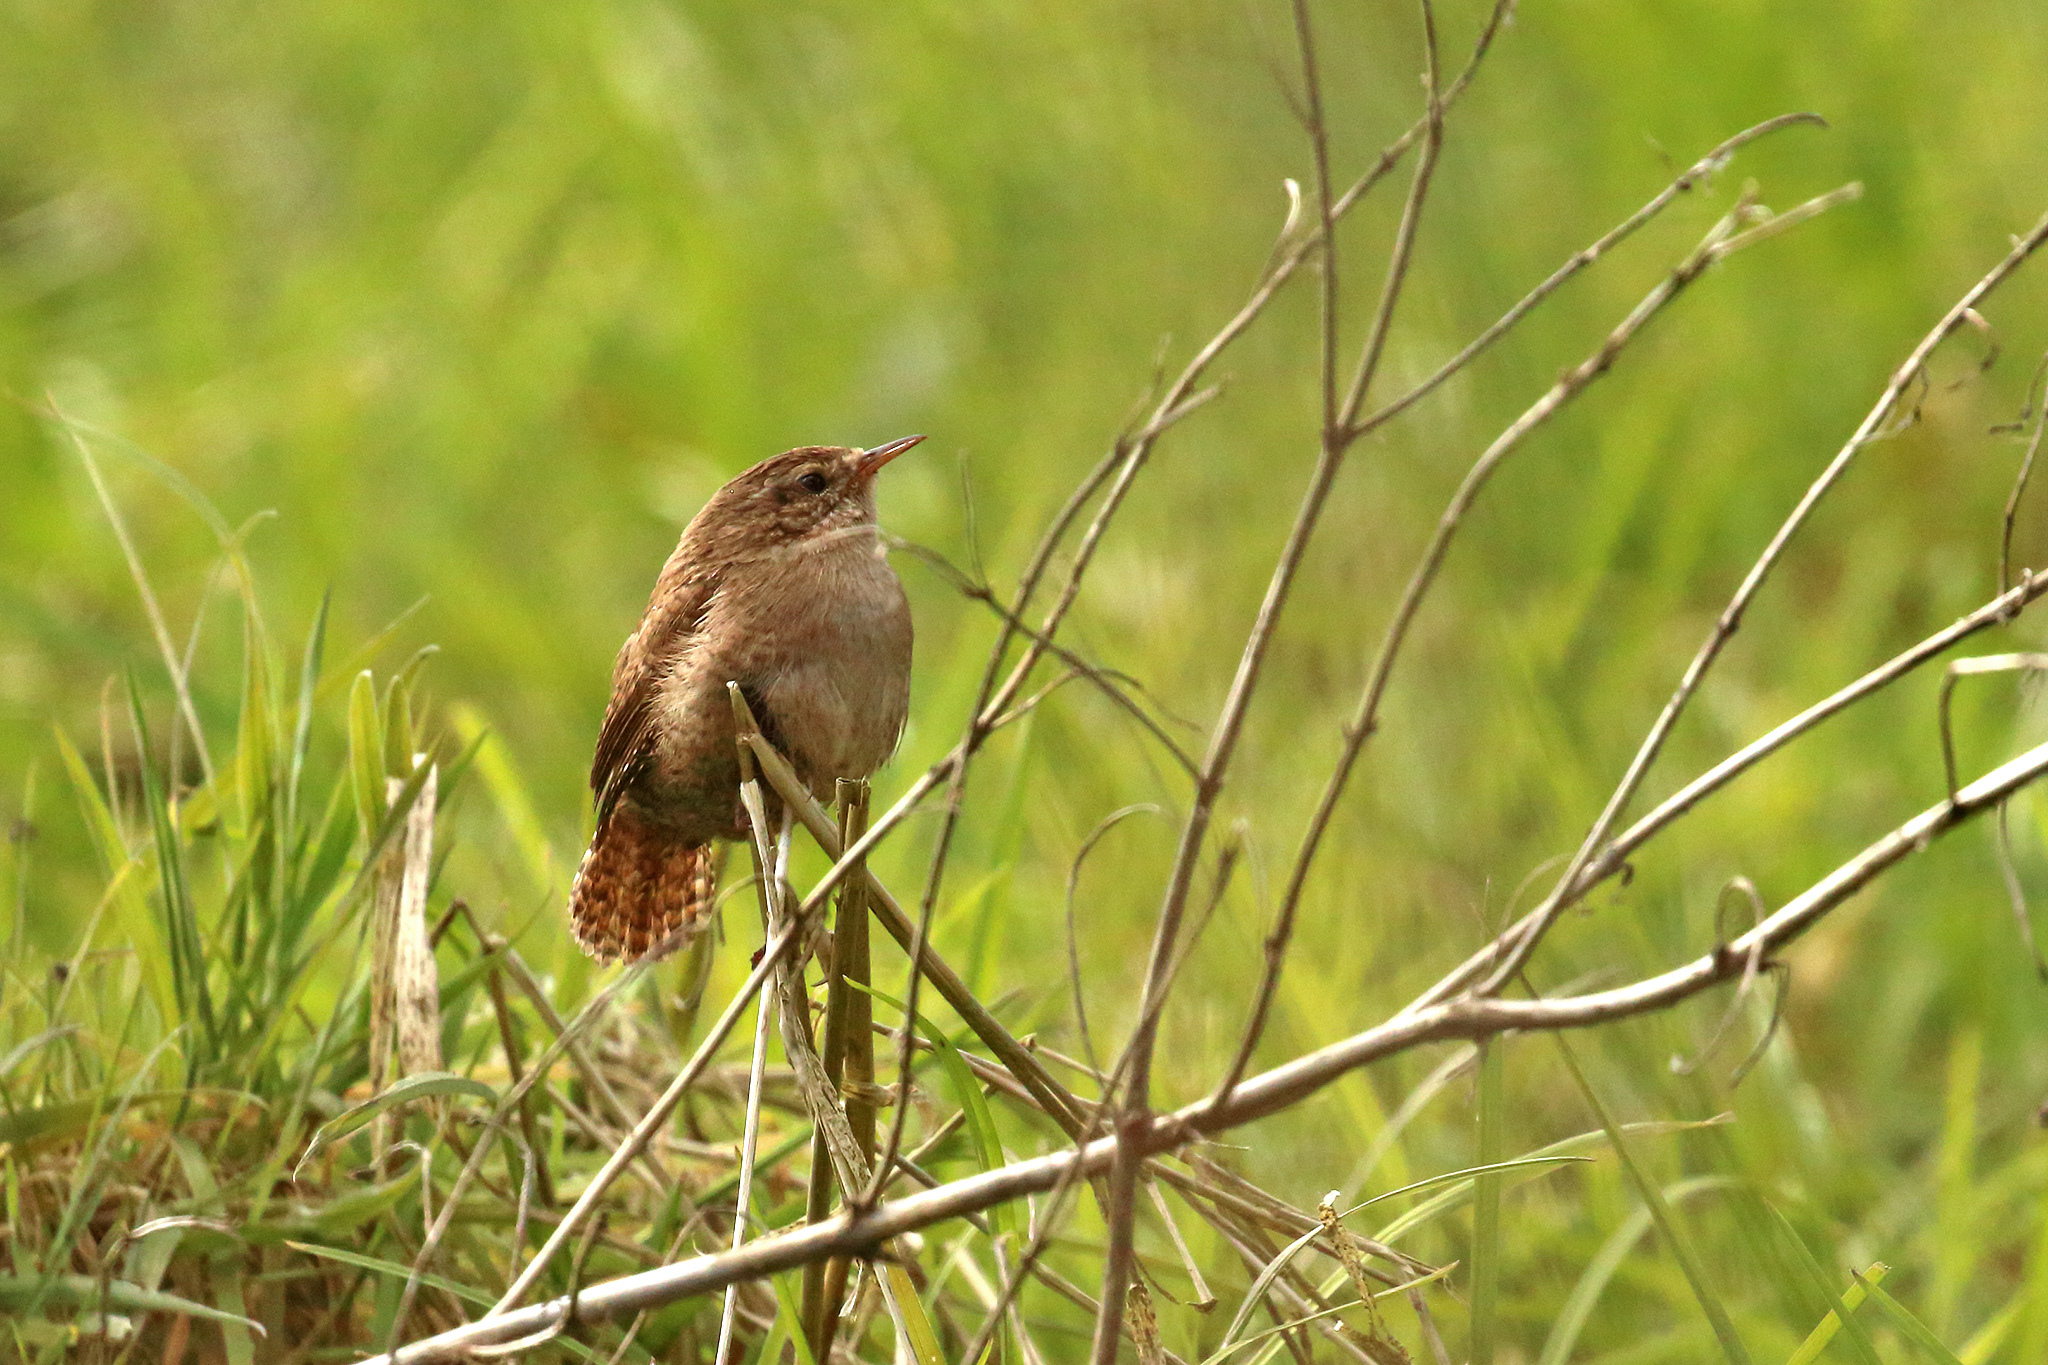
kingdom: Animalia
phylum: Chordata
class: Aves
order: Passeriformes
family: Troglodytidae
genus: Troglodytes
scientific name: Troglodytes troglodytes
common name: Eurasian wren
